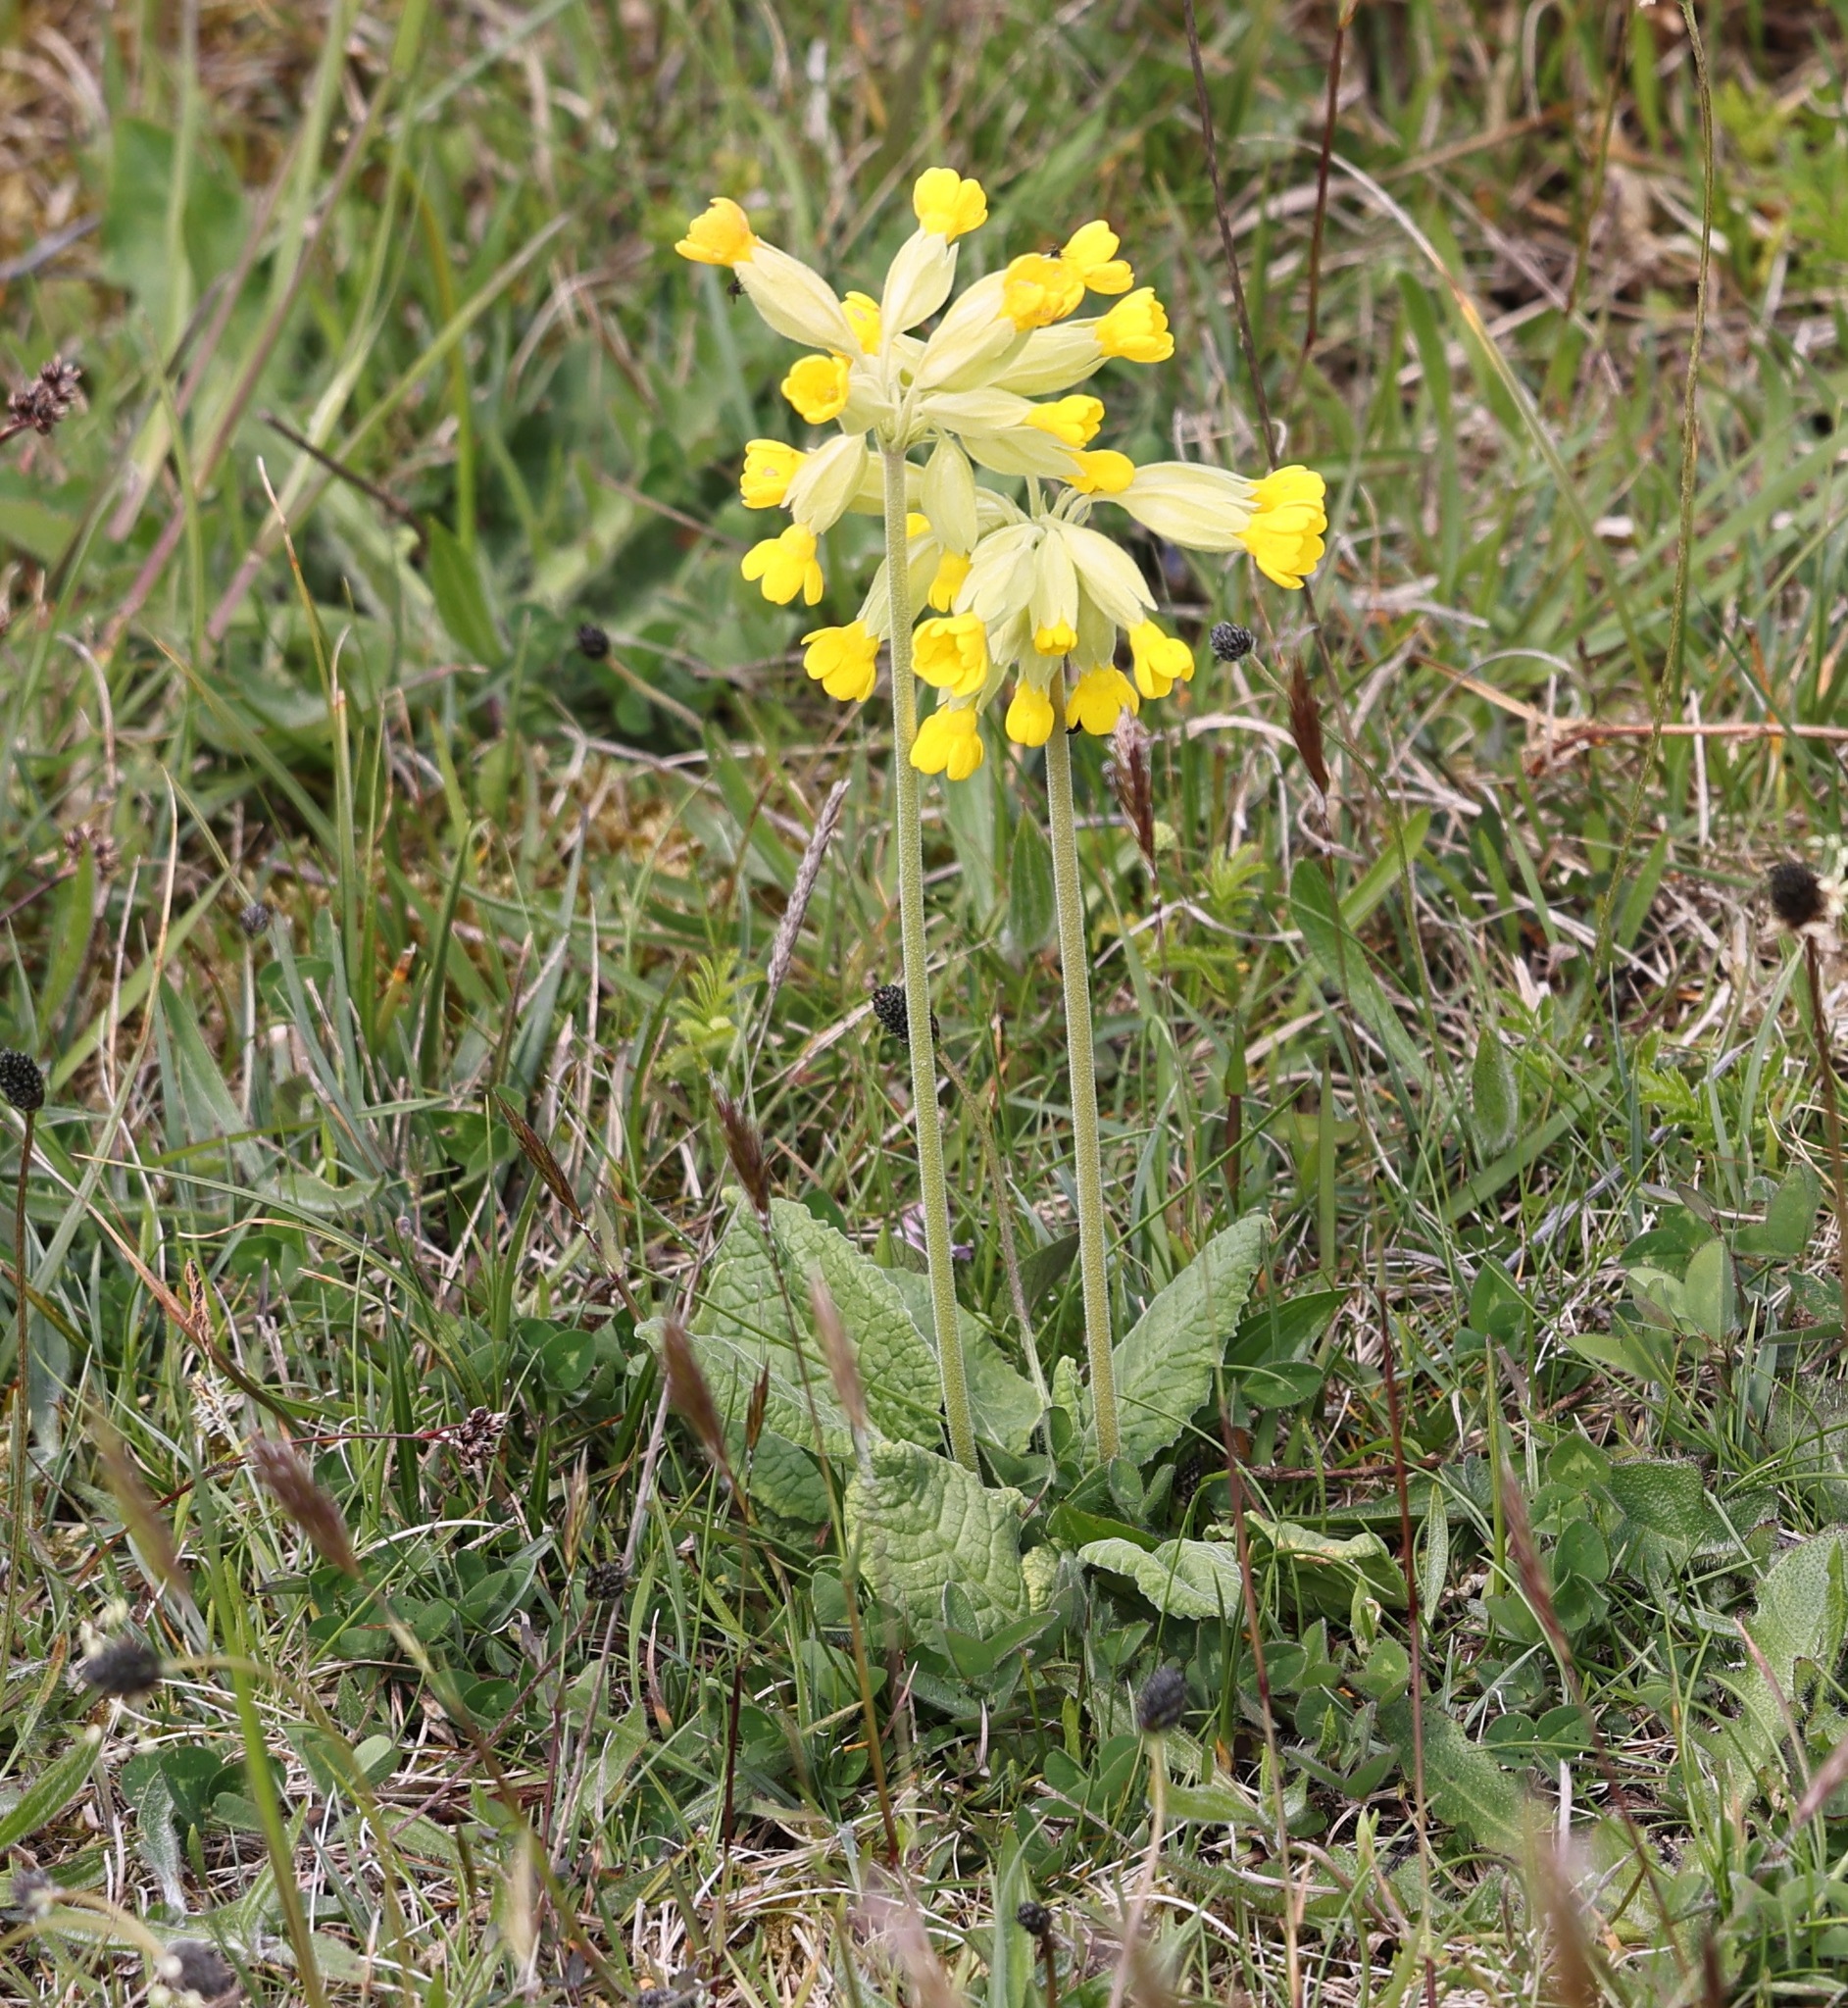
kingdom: Plantae
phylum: Tracheophyta
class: Magnoliopsida
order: Ericales
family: Primulaceae
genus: Primula
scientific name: Primula veris
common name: Cowslip
